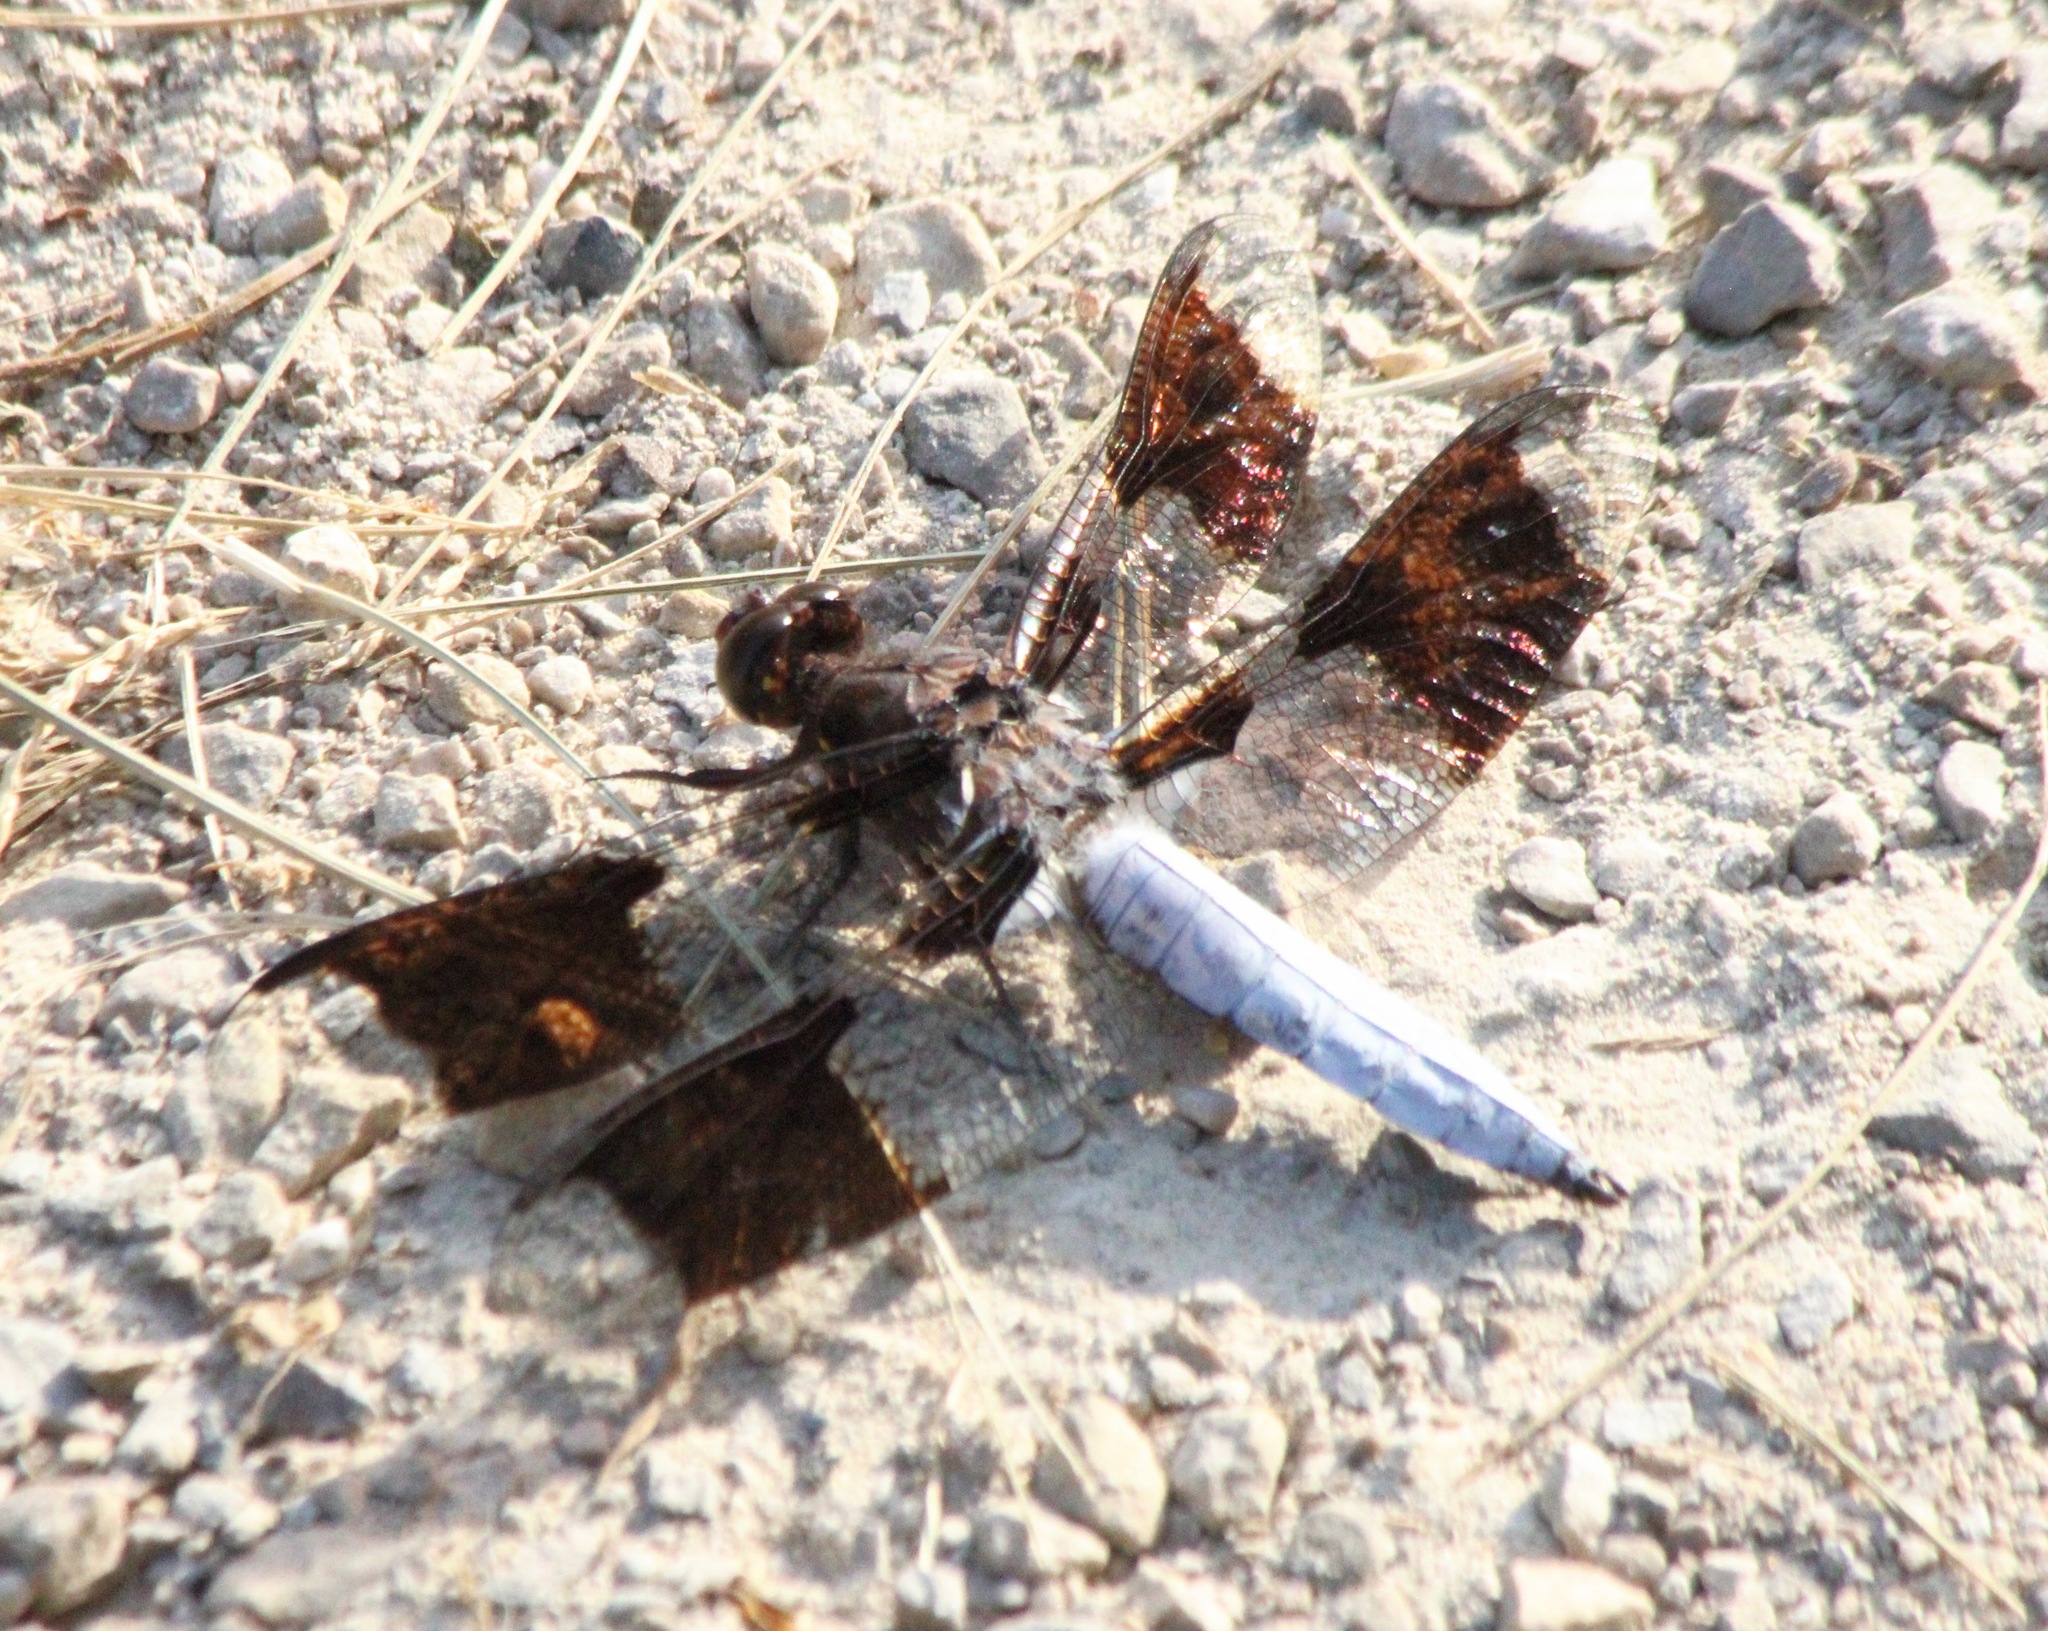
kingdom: Animalia
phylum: Arthropoda
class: Insecta
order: Odonata
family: Libellulidae
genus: Plathemis
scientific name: Plathemis lydia
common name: Common whitetail
